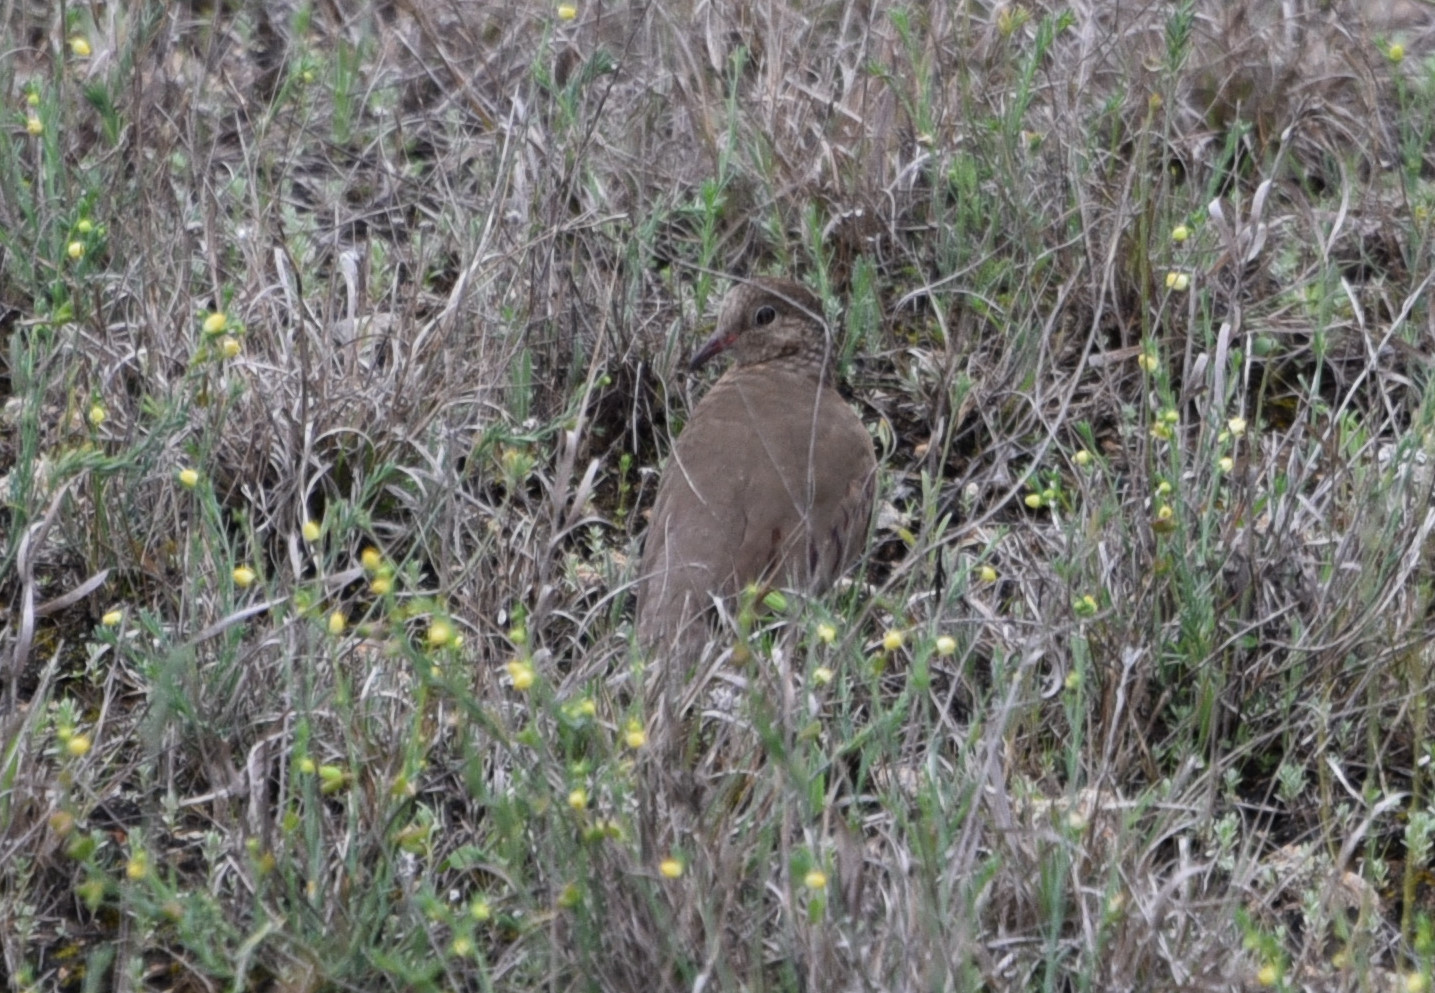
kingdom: Animalia
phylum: Chordata
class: Aves
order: Columbiformes
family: Columbidae
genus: Columbina
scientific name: Columbina passerina
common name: Common ground-dove
